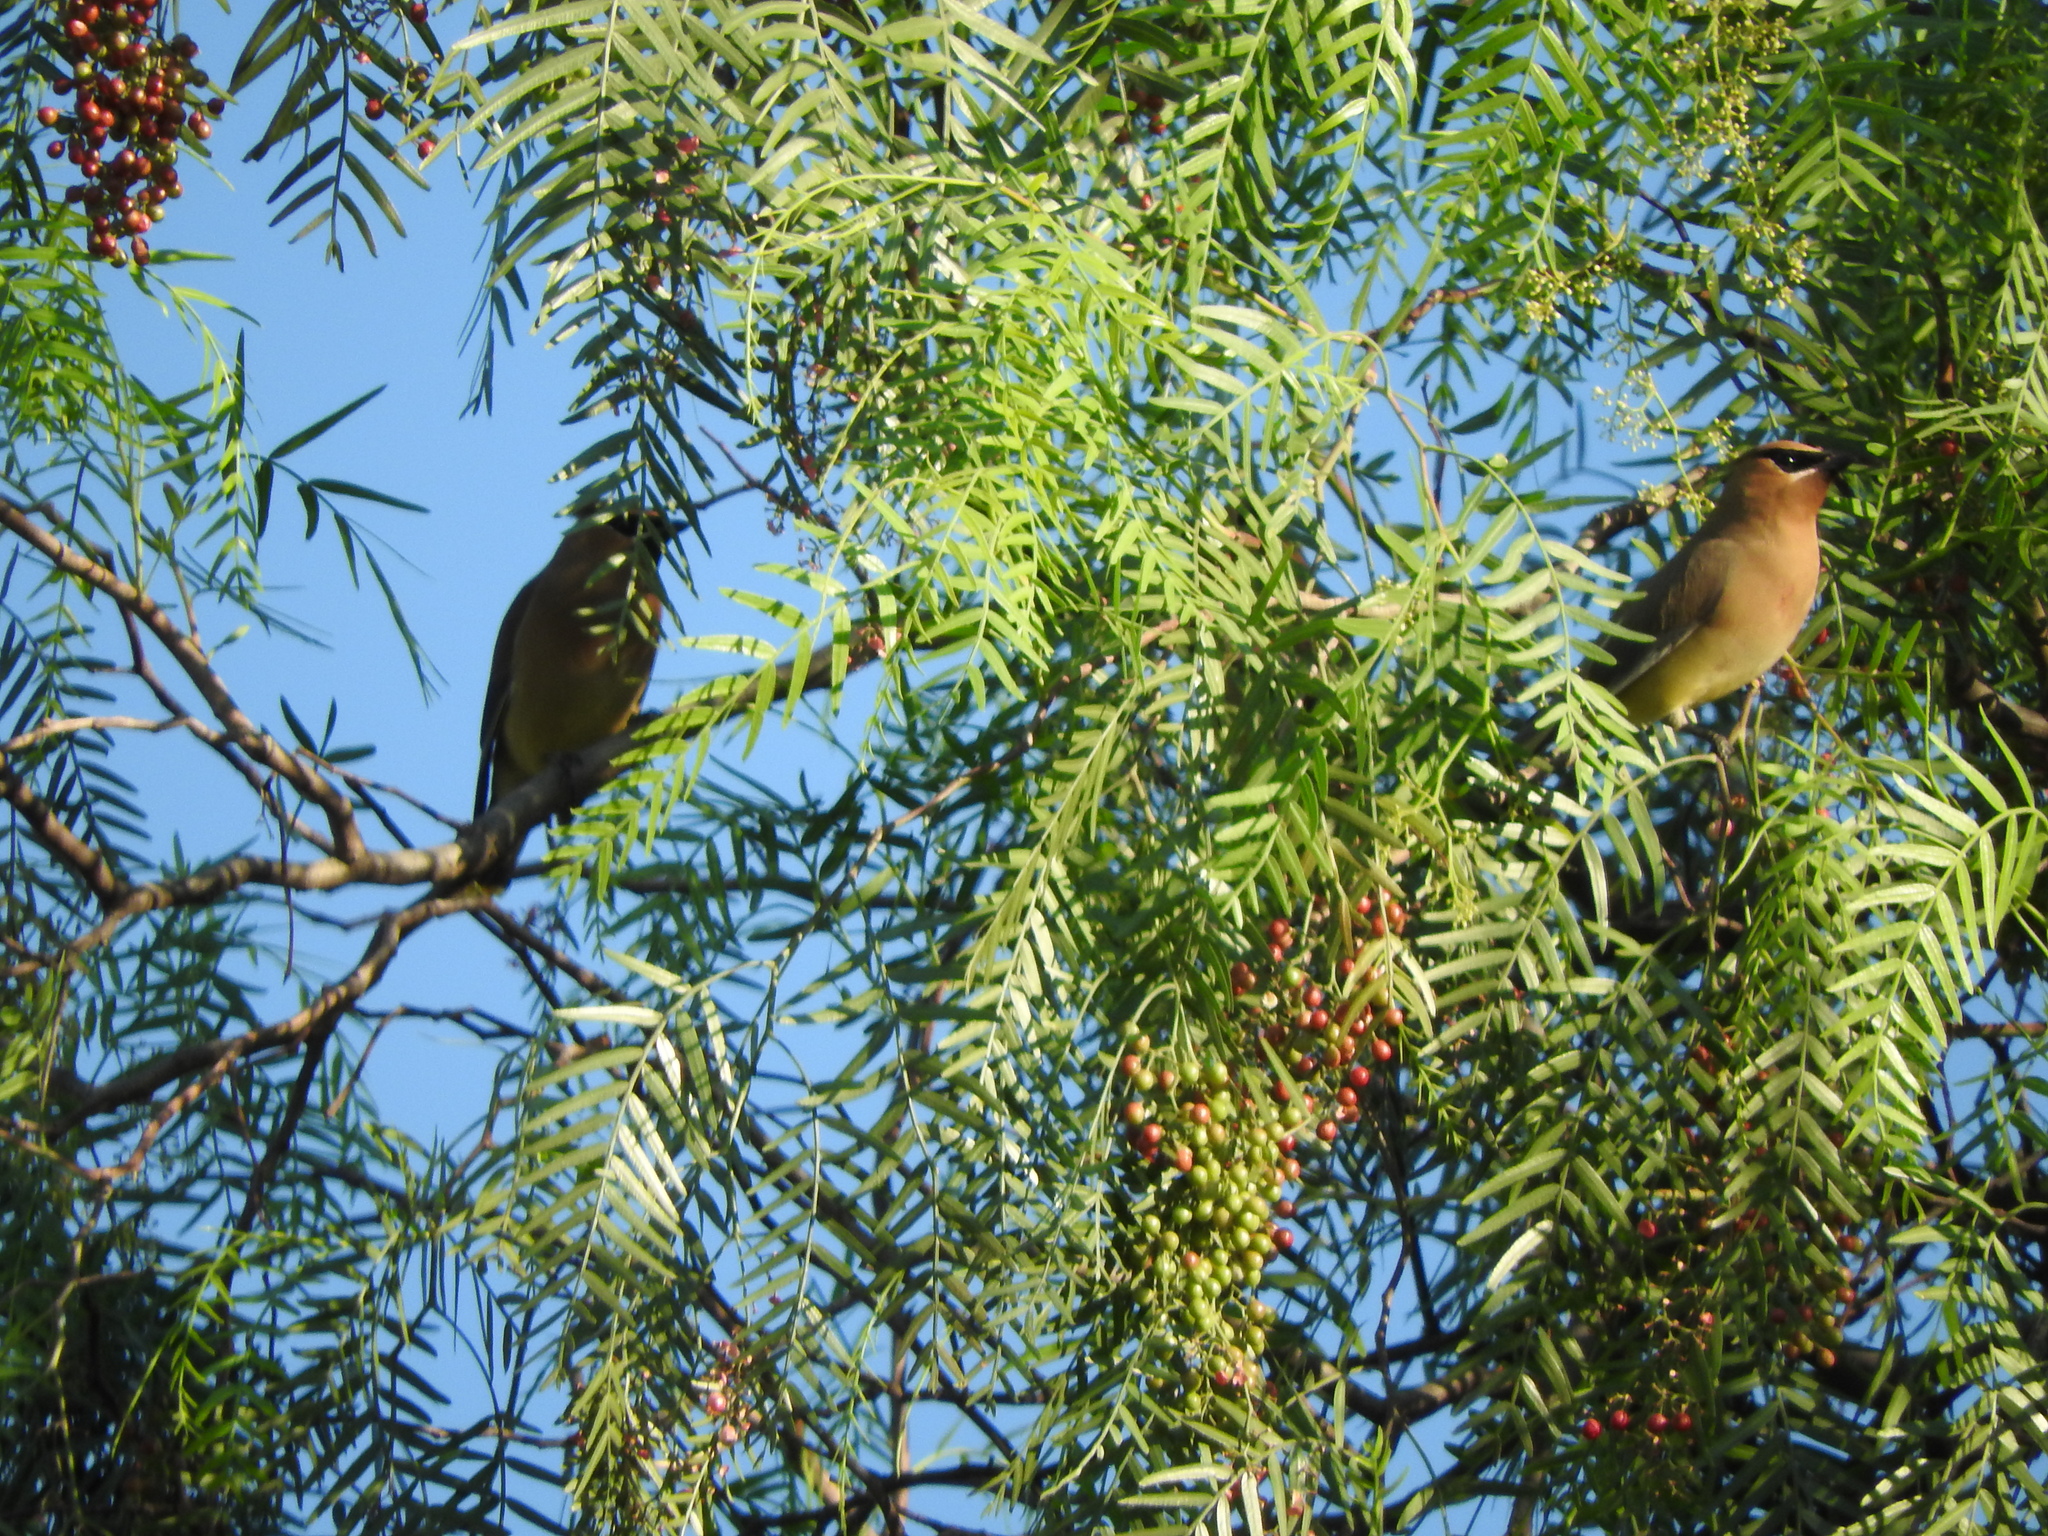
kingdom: Animalia
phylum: Chordata
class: Aves
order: Passeriformes
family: Bombycillidae
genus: Bombycilla
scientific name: Bombycilla cedrorum
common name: Cedar waxwing
